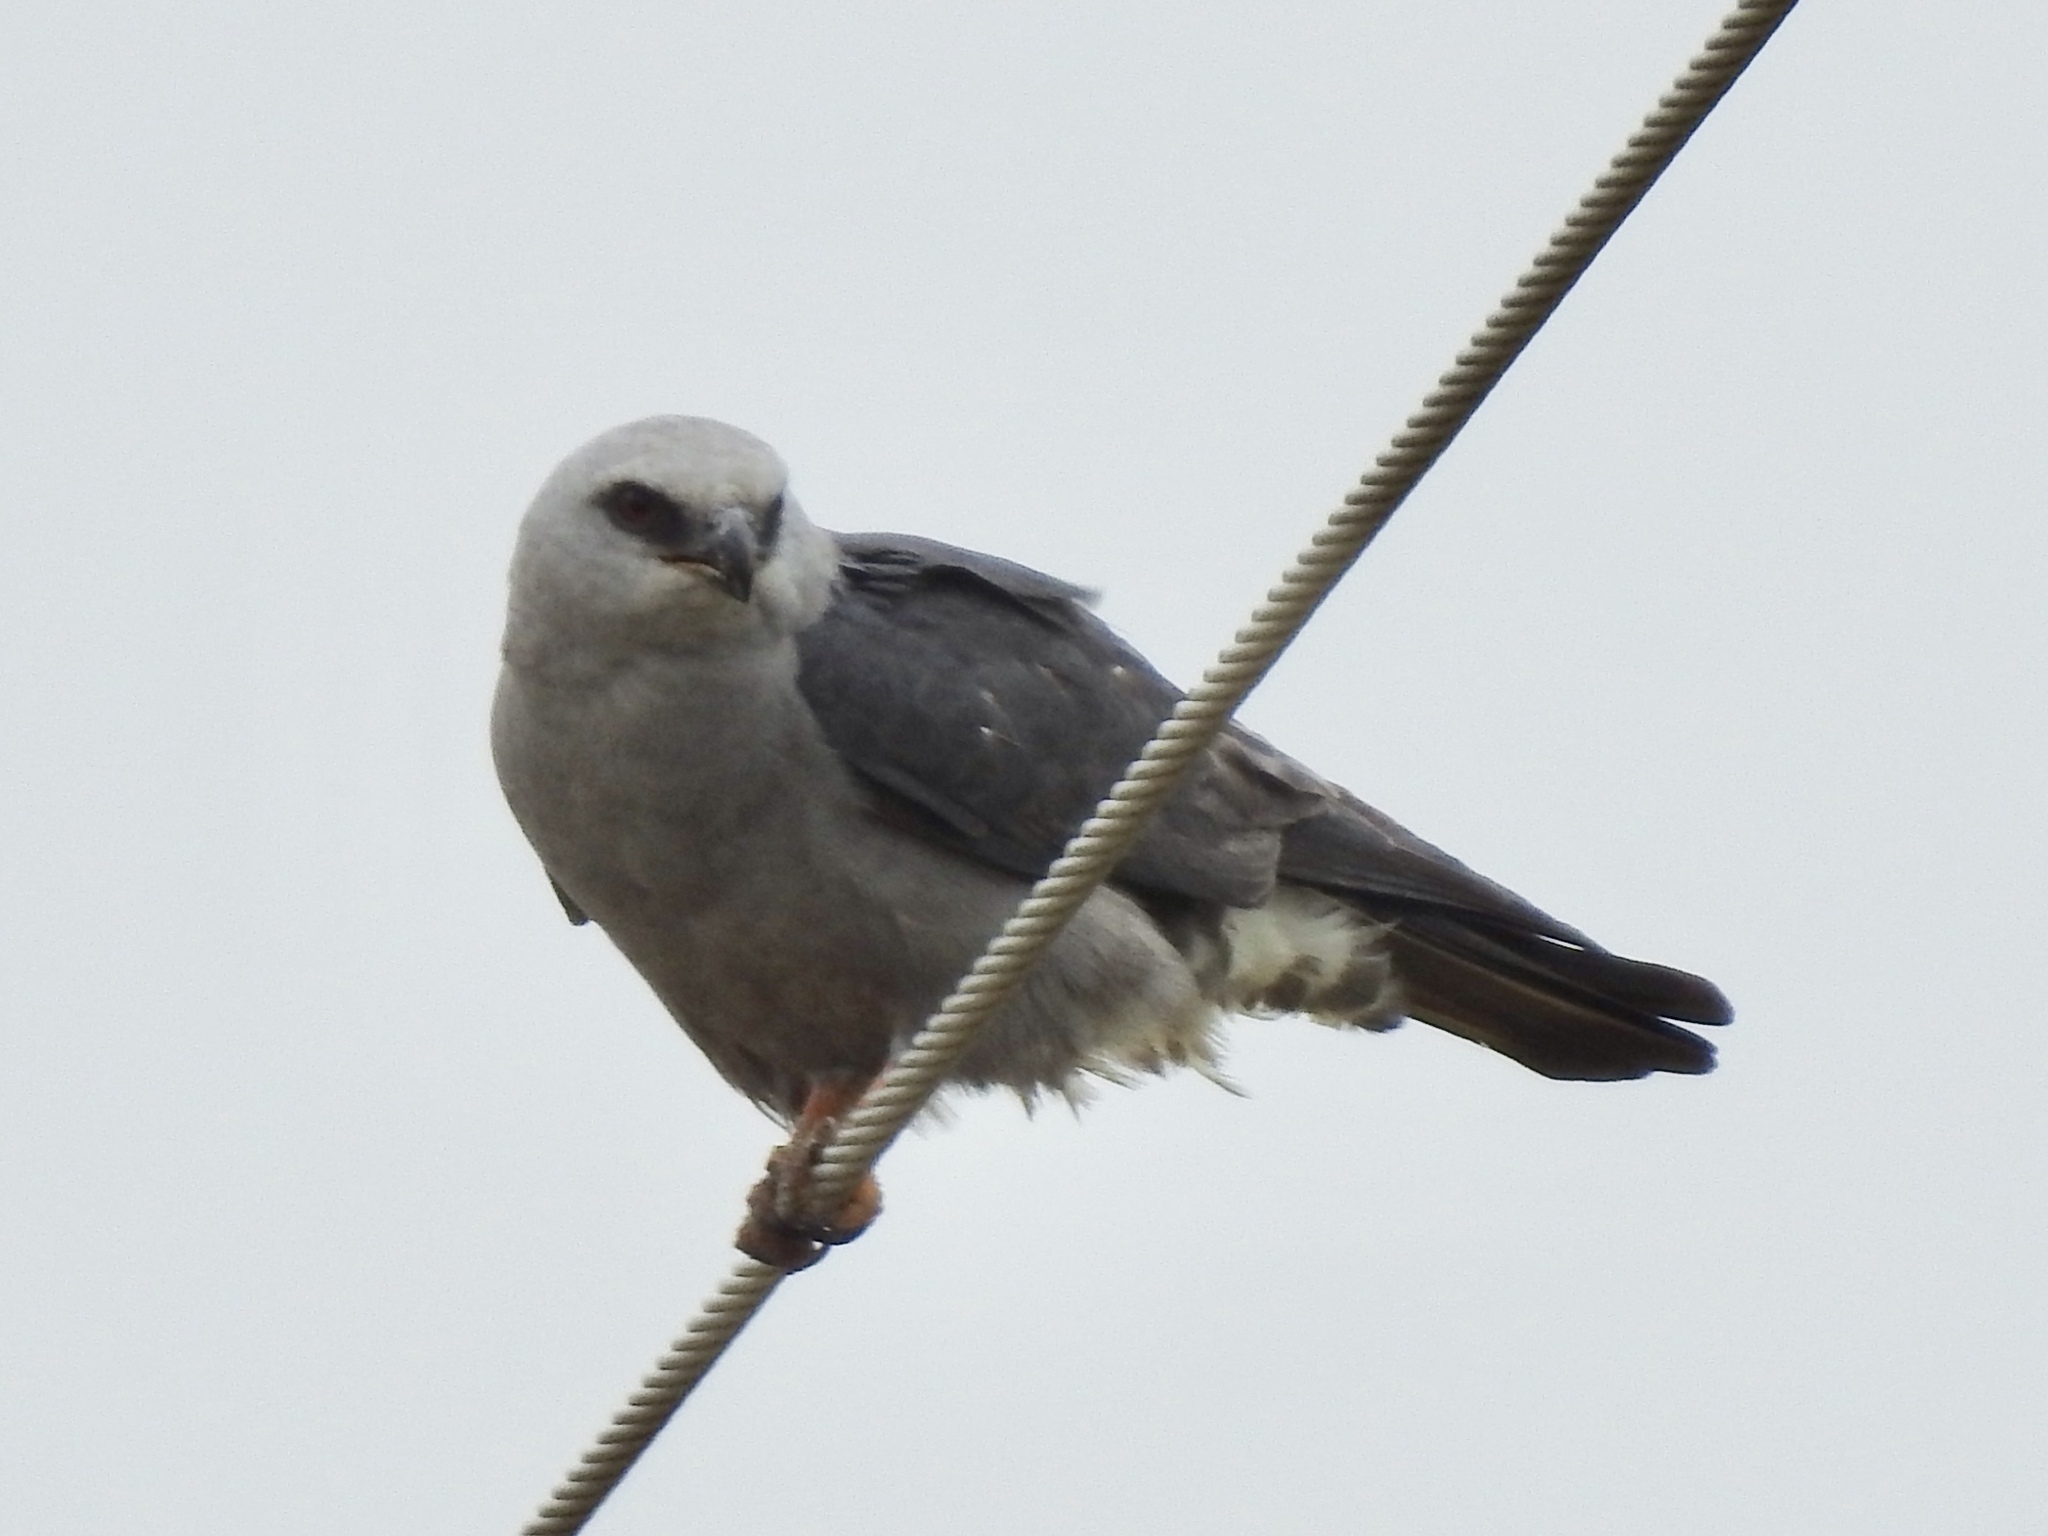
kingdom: Animalia
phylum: Chordata
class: Aves
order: Accipitriformes
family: Accipitridae
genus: Ictinia
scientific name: Ictinia mississippiensis
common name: Mississippi kite
